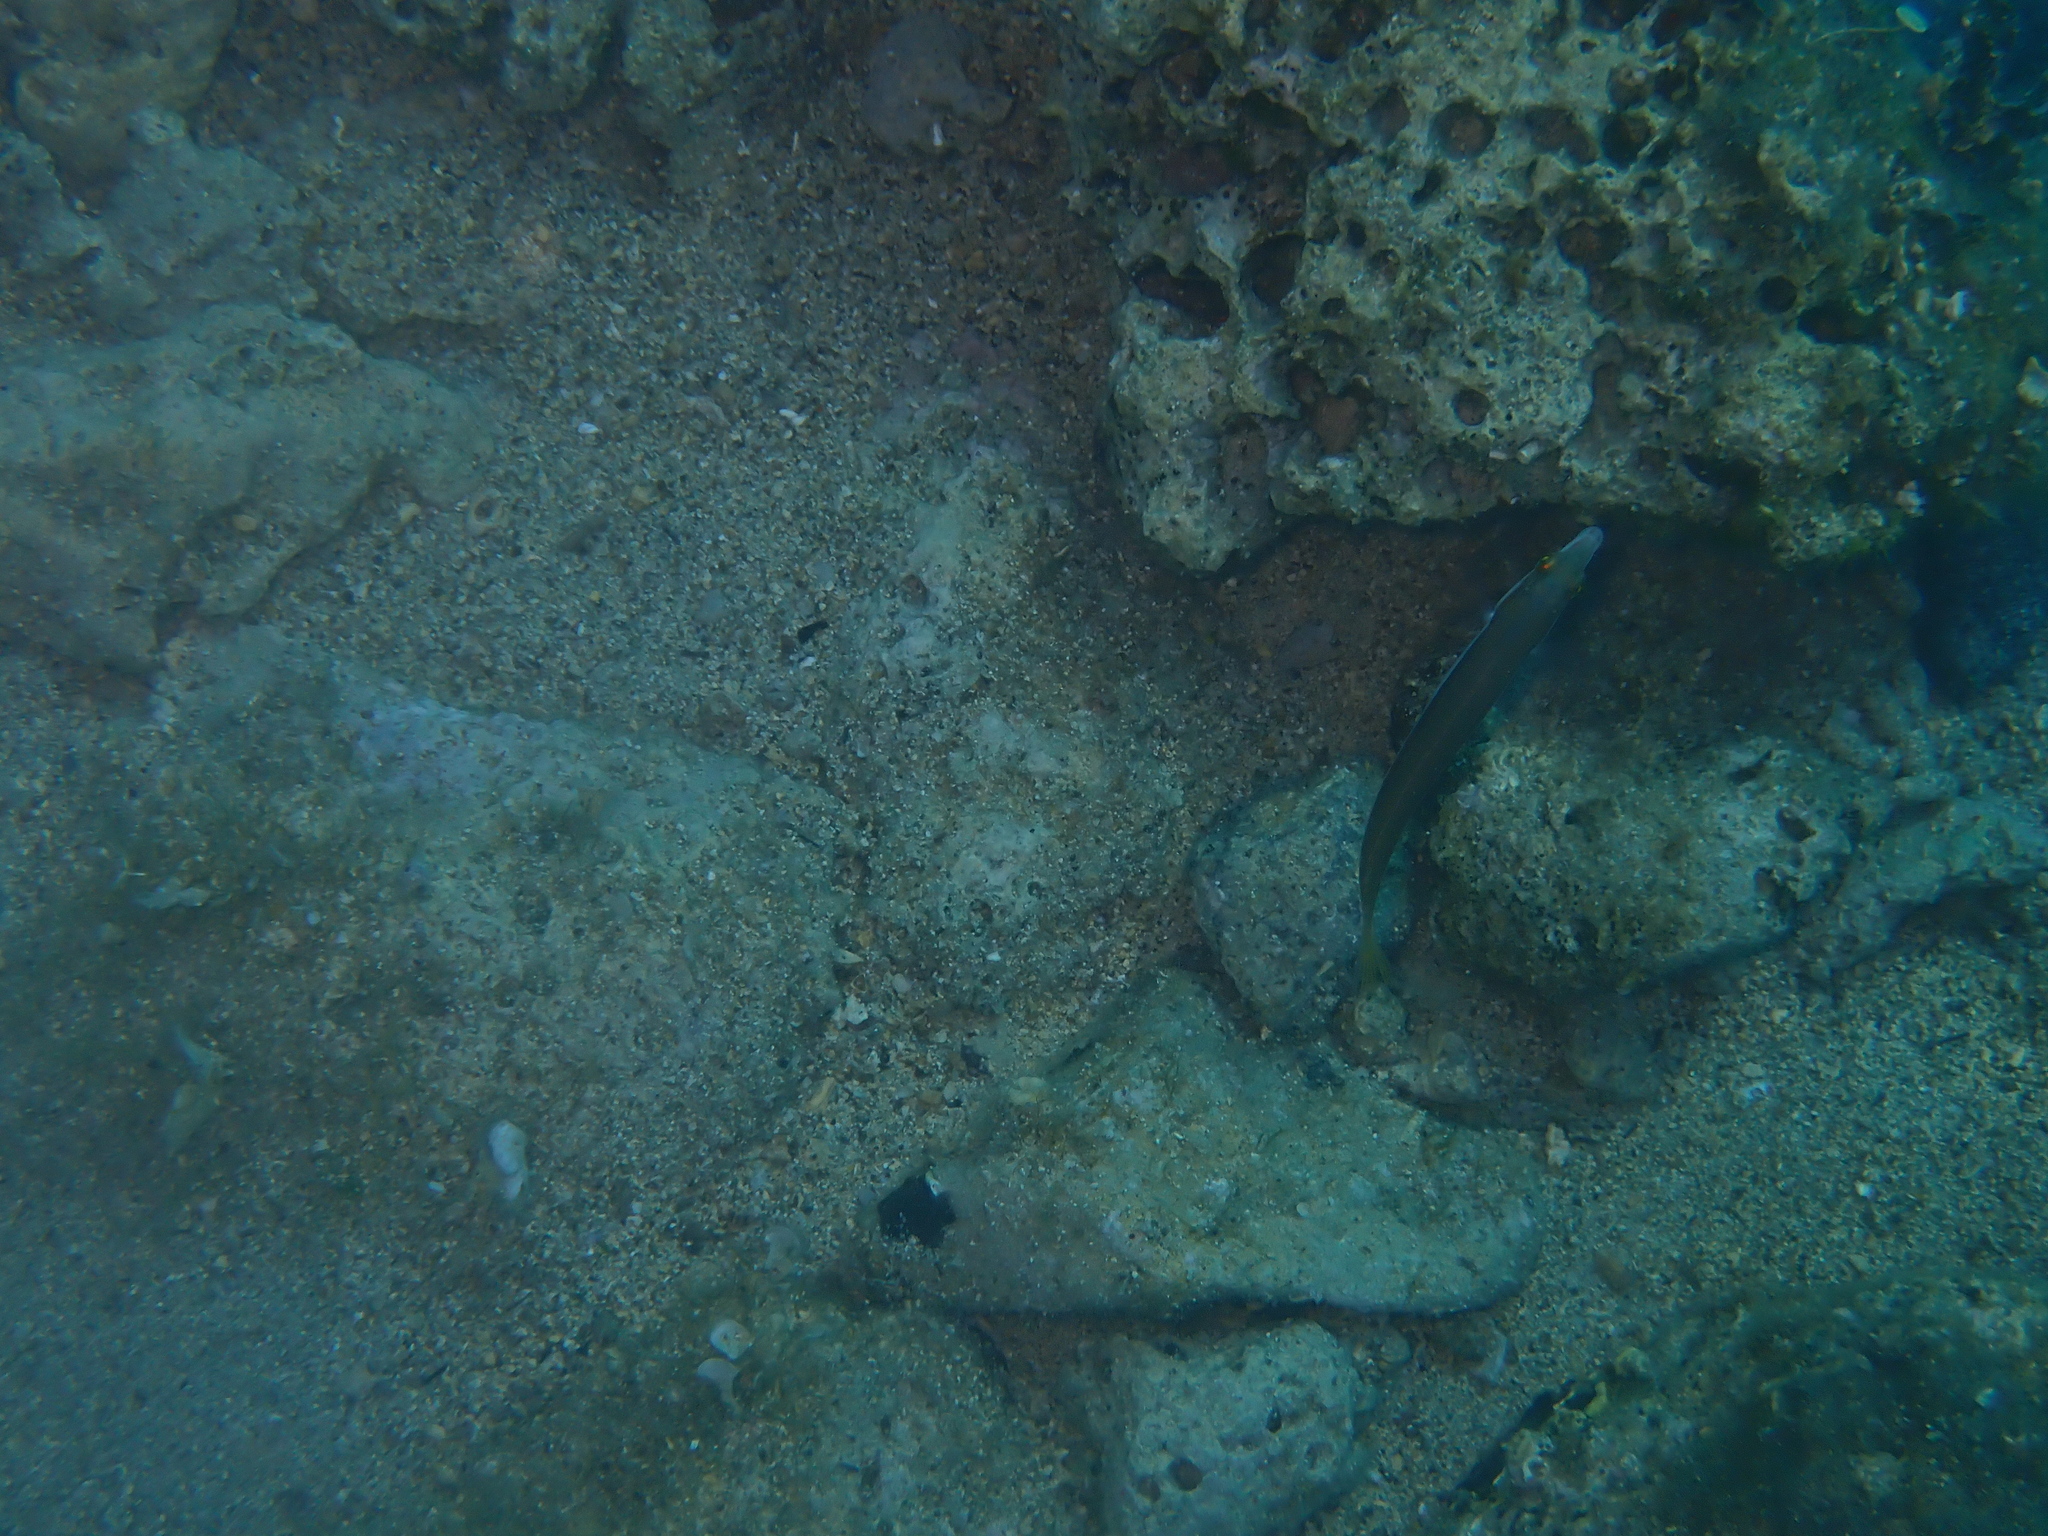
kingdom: Animalia
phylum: Chordata
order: Perciformes
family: Labridae
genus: Coris
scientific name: Coris julis
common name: Rainbow wrasse
